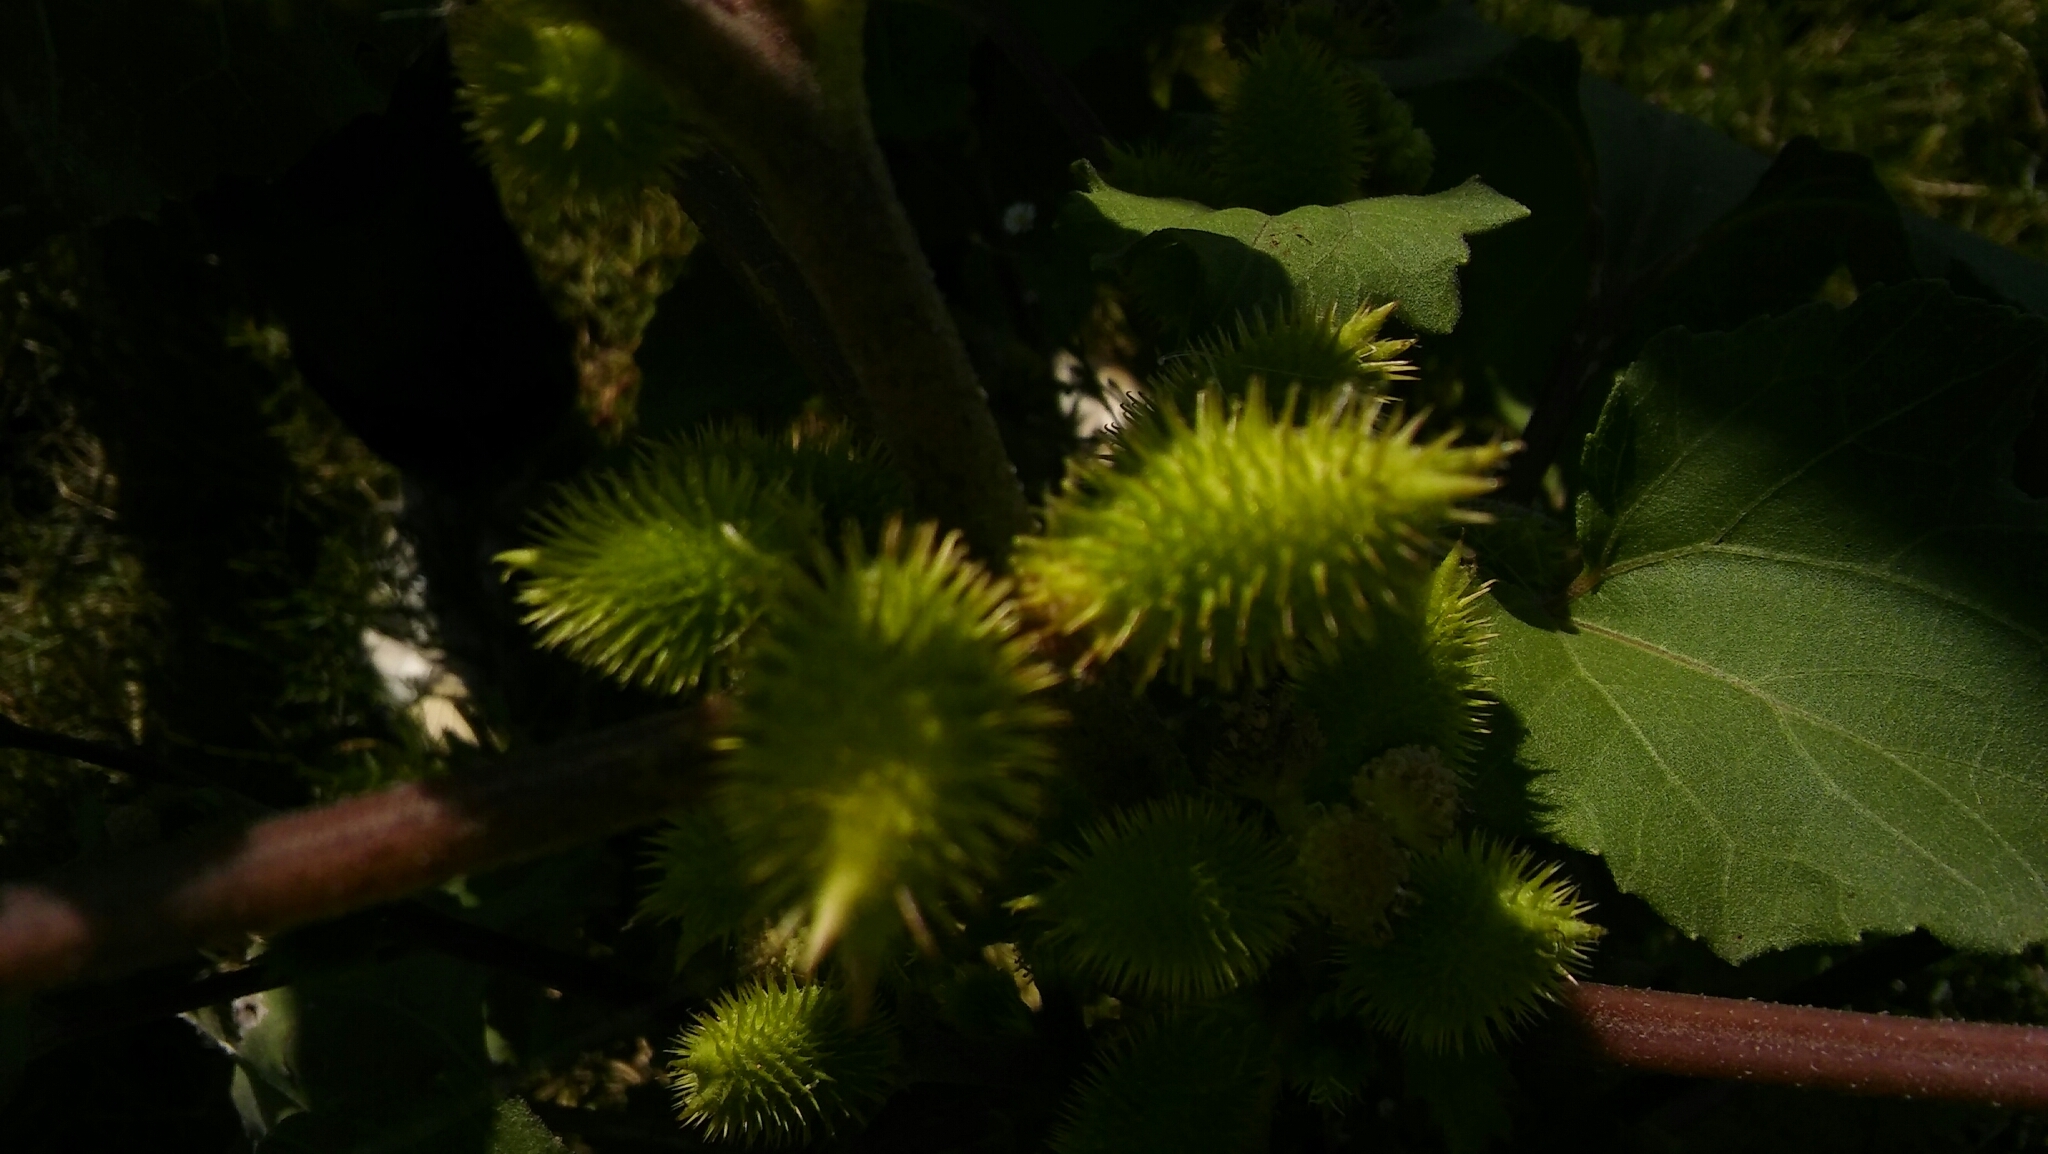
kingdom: Plantae
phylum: Tracheophyta
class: Magnoliopsida
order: Asterales
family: Asteraceae
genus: Xanthium
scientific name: Xanthium orientale
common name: Californian burr
